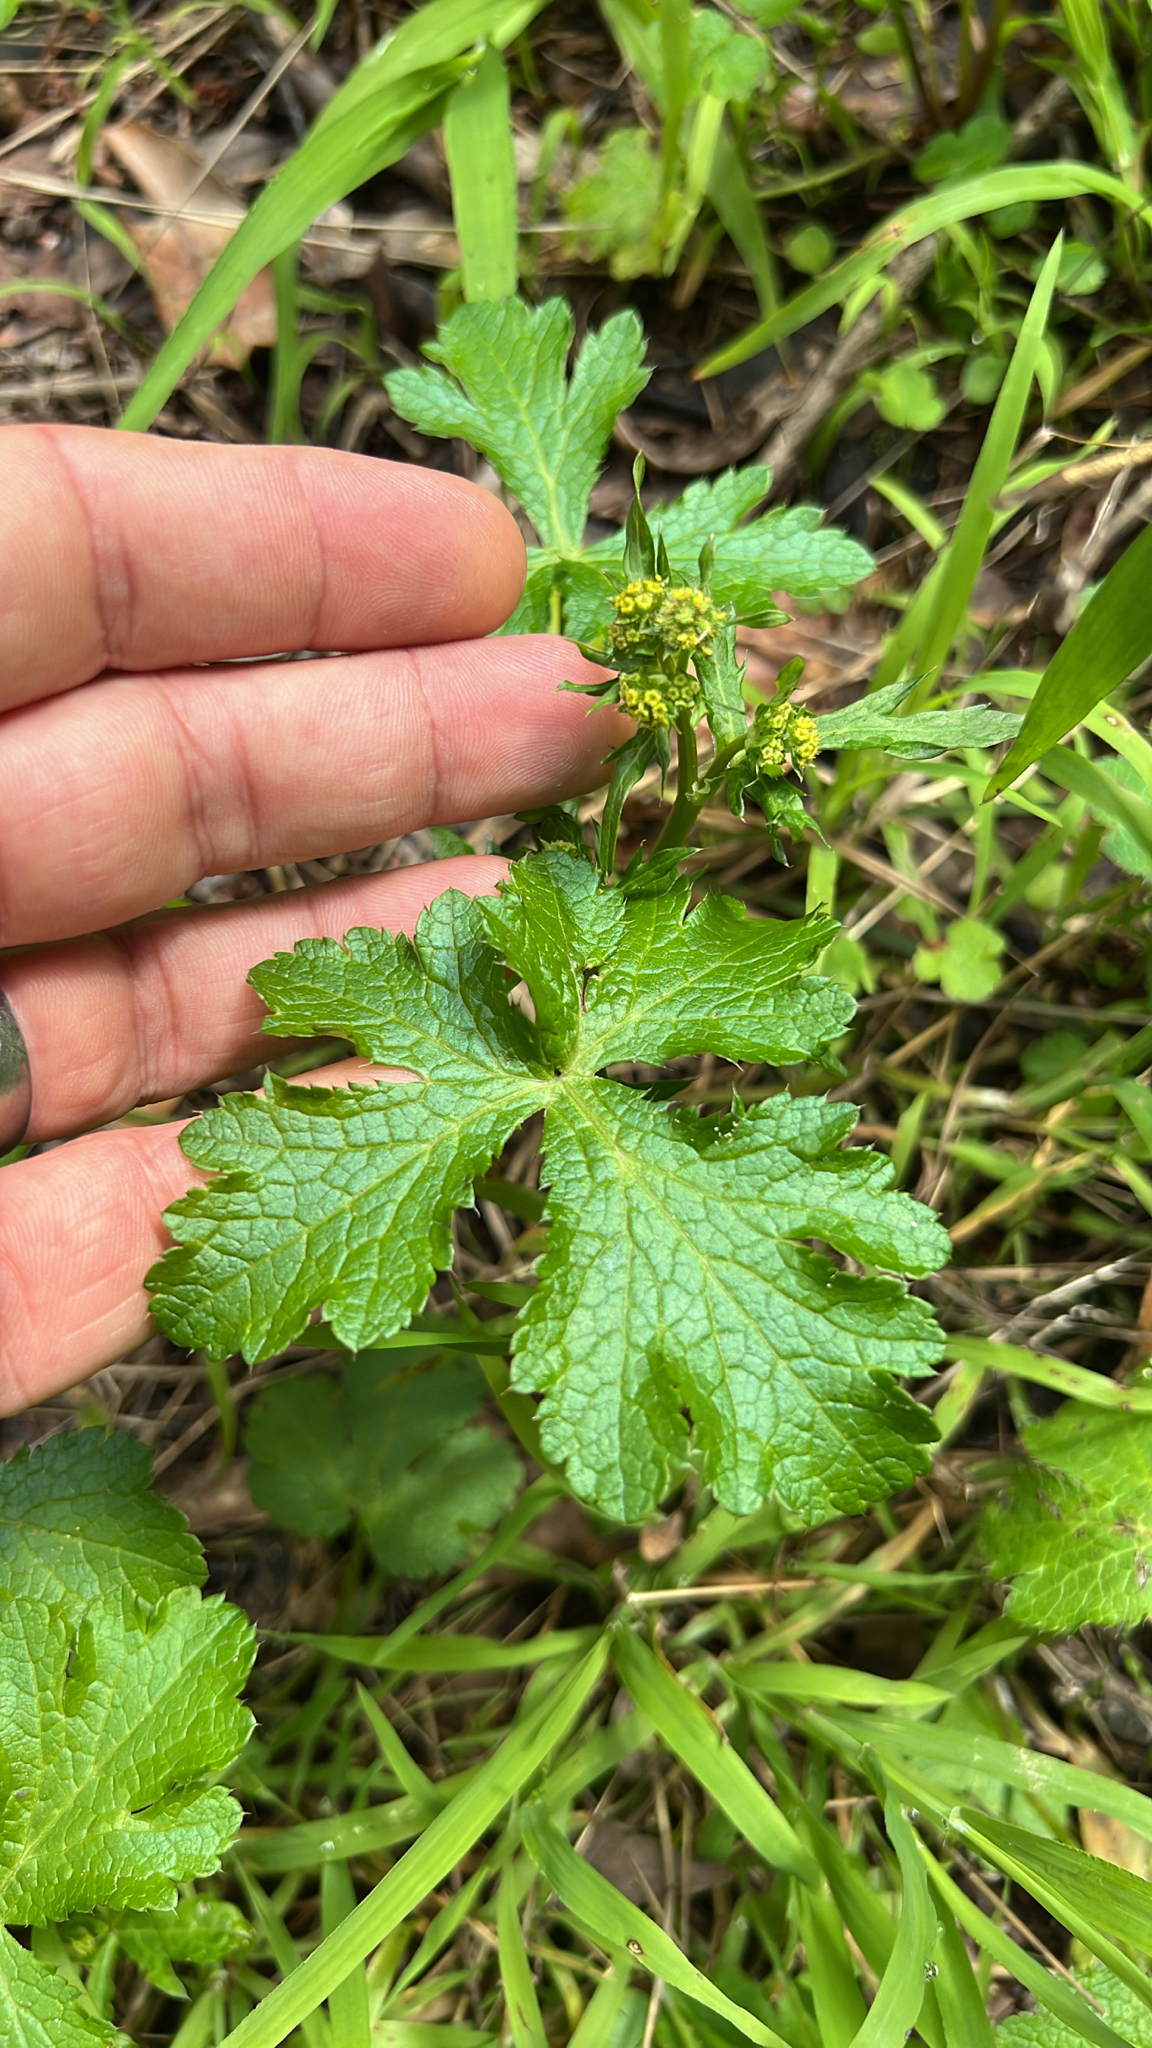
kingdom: Plantae
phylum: Tracheophyta
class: Magnoliopsida
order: Apiales
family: Apiaceae
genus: Sanicula
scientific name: Sanicula crassicaulis
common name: Western snakeroot
